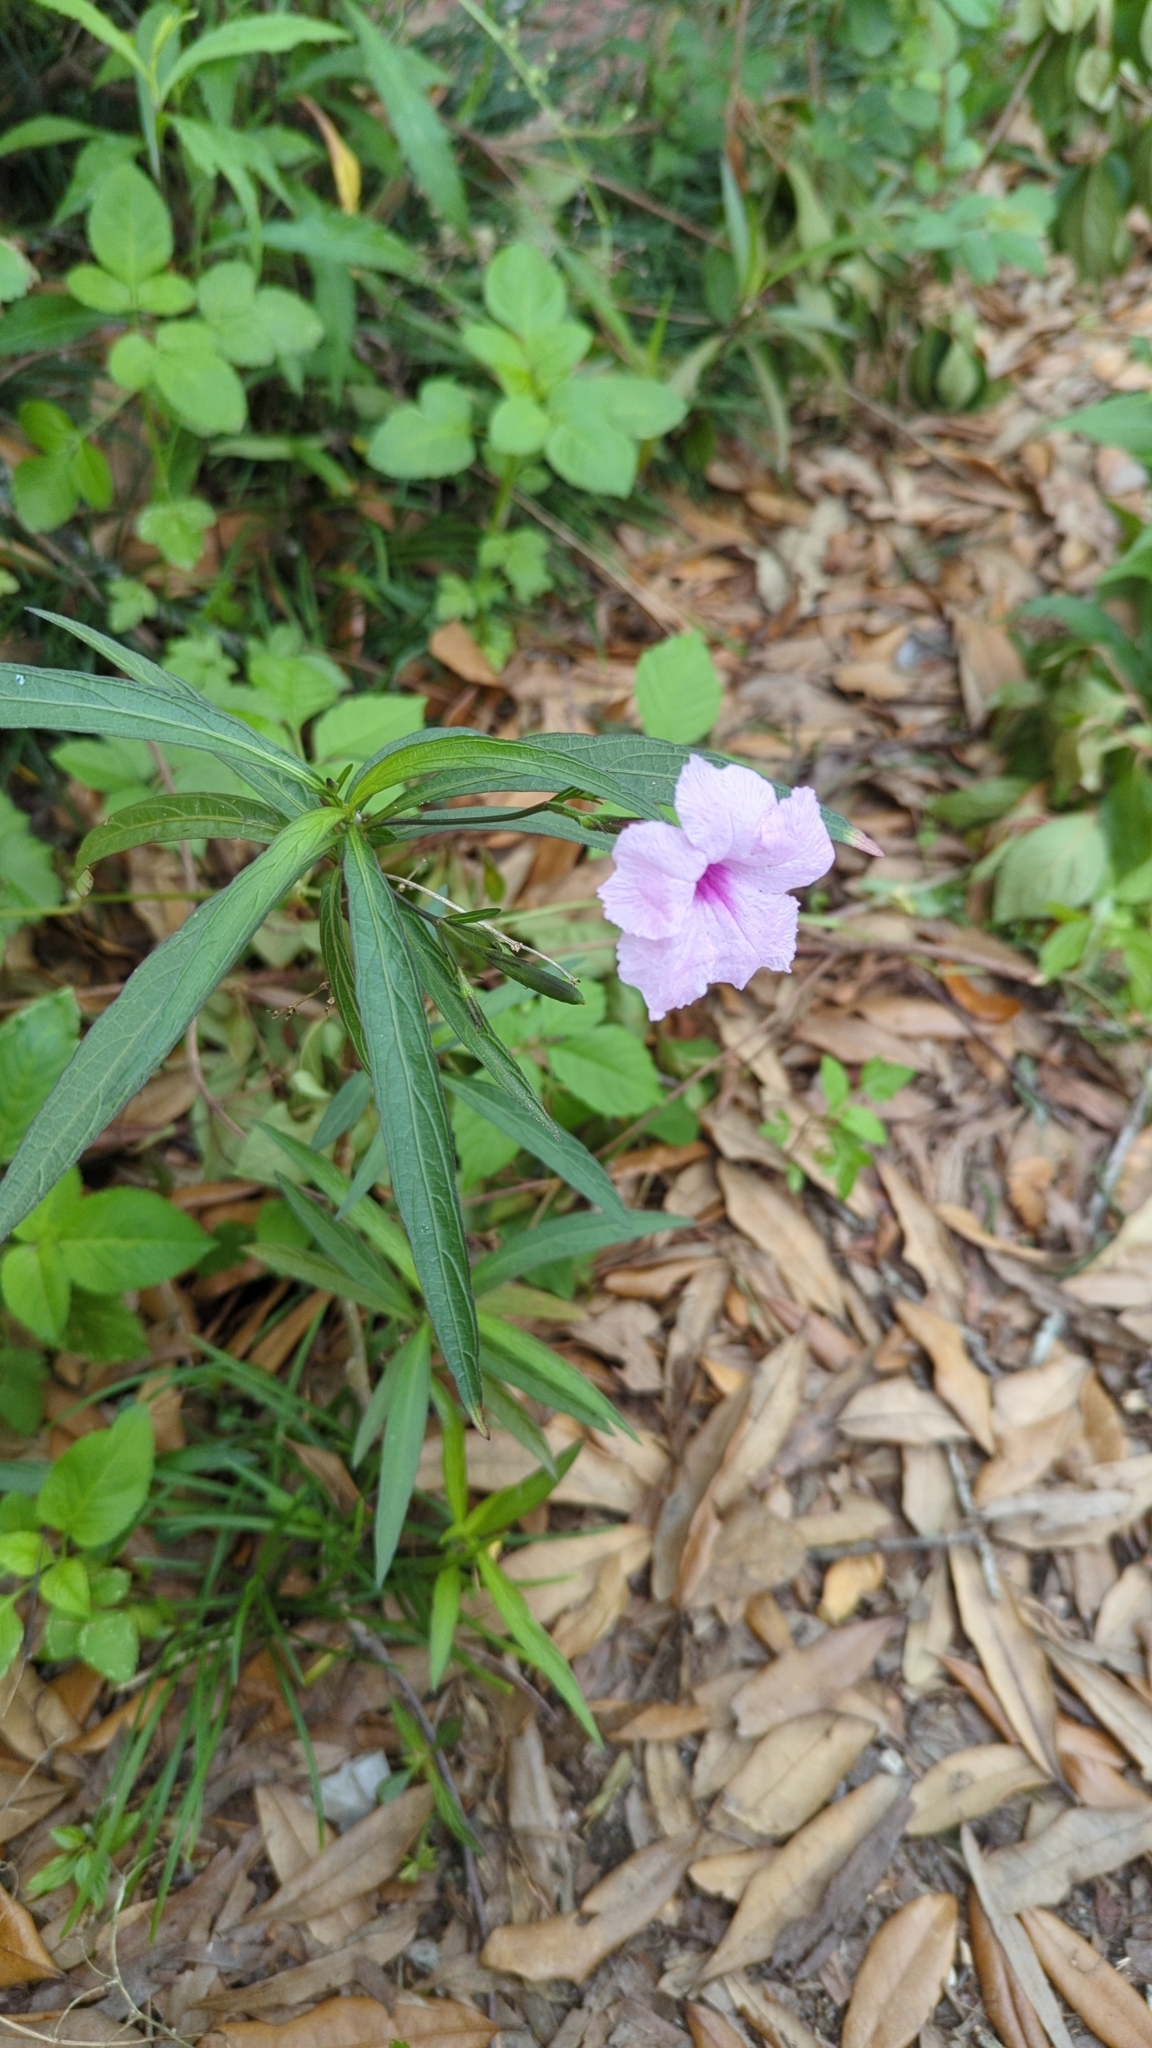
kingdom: Plantae
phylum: Tracheophyta
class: Magnoliopsida
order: Lamiales
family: Acanthaceae
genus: Ruellia
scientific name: Ruellia simplex
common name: Softseed wild petunia
